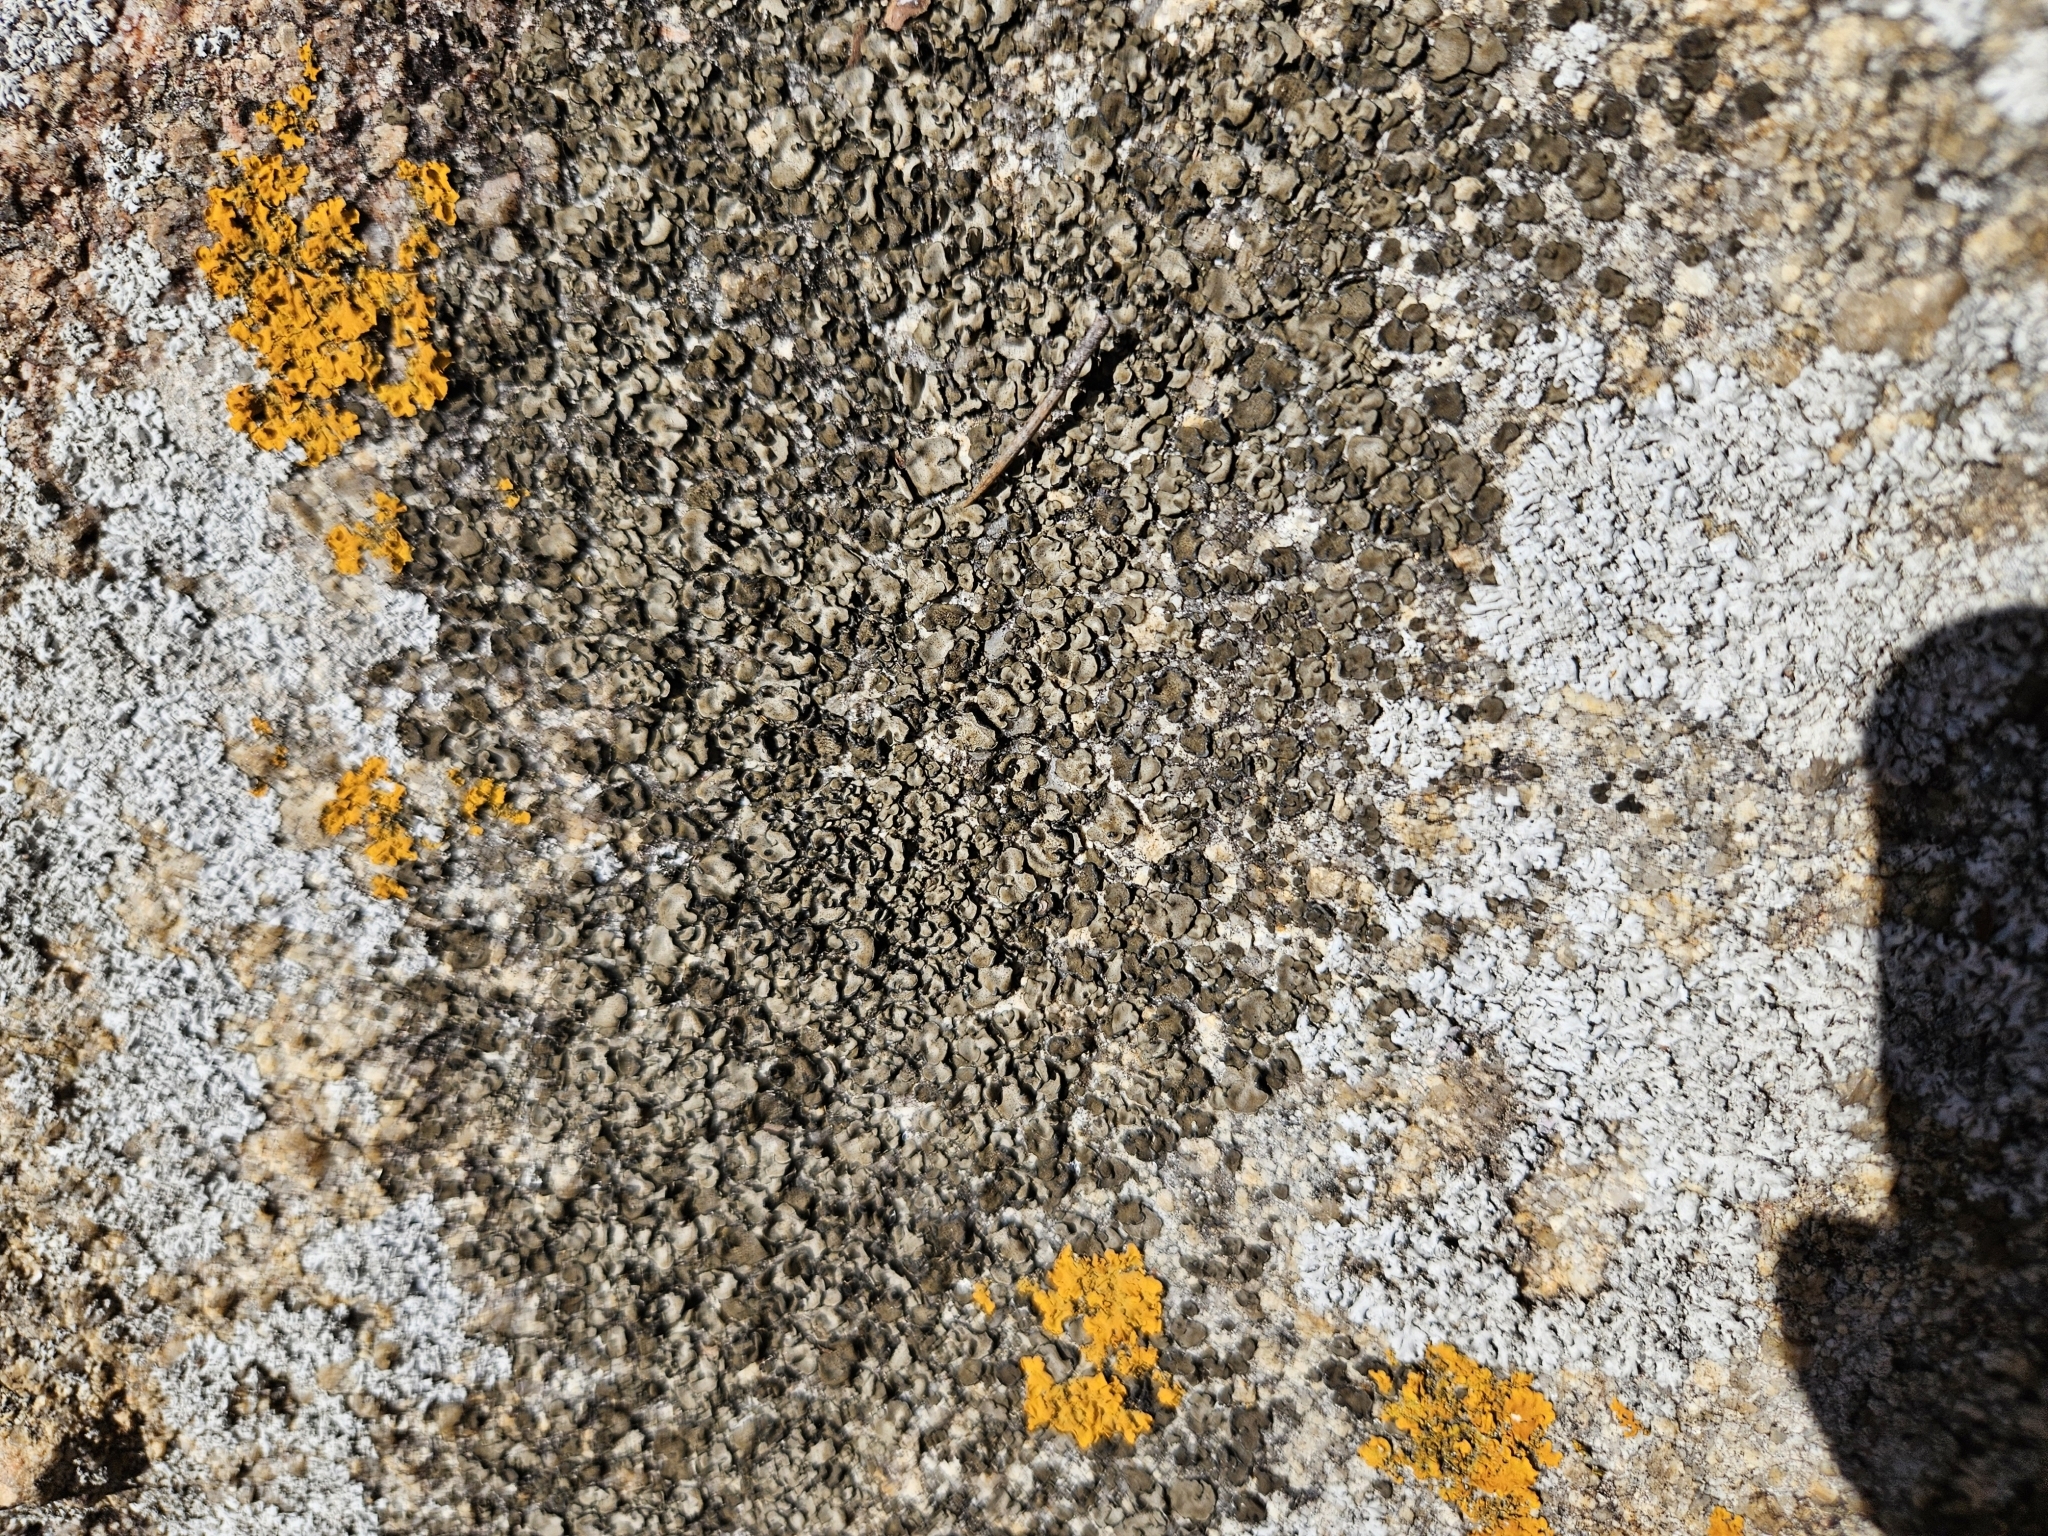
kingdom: Fungi
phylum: Ascomycota
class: Lichinomycetes
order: Lichinales
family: Peltulaceae
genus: Peltula
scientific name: Peltula euploca
